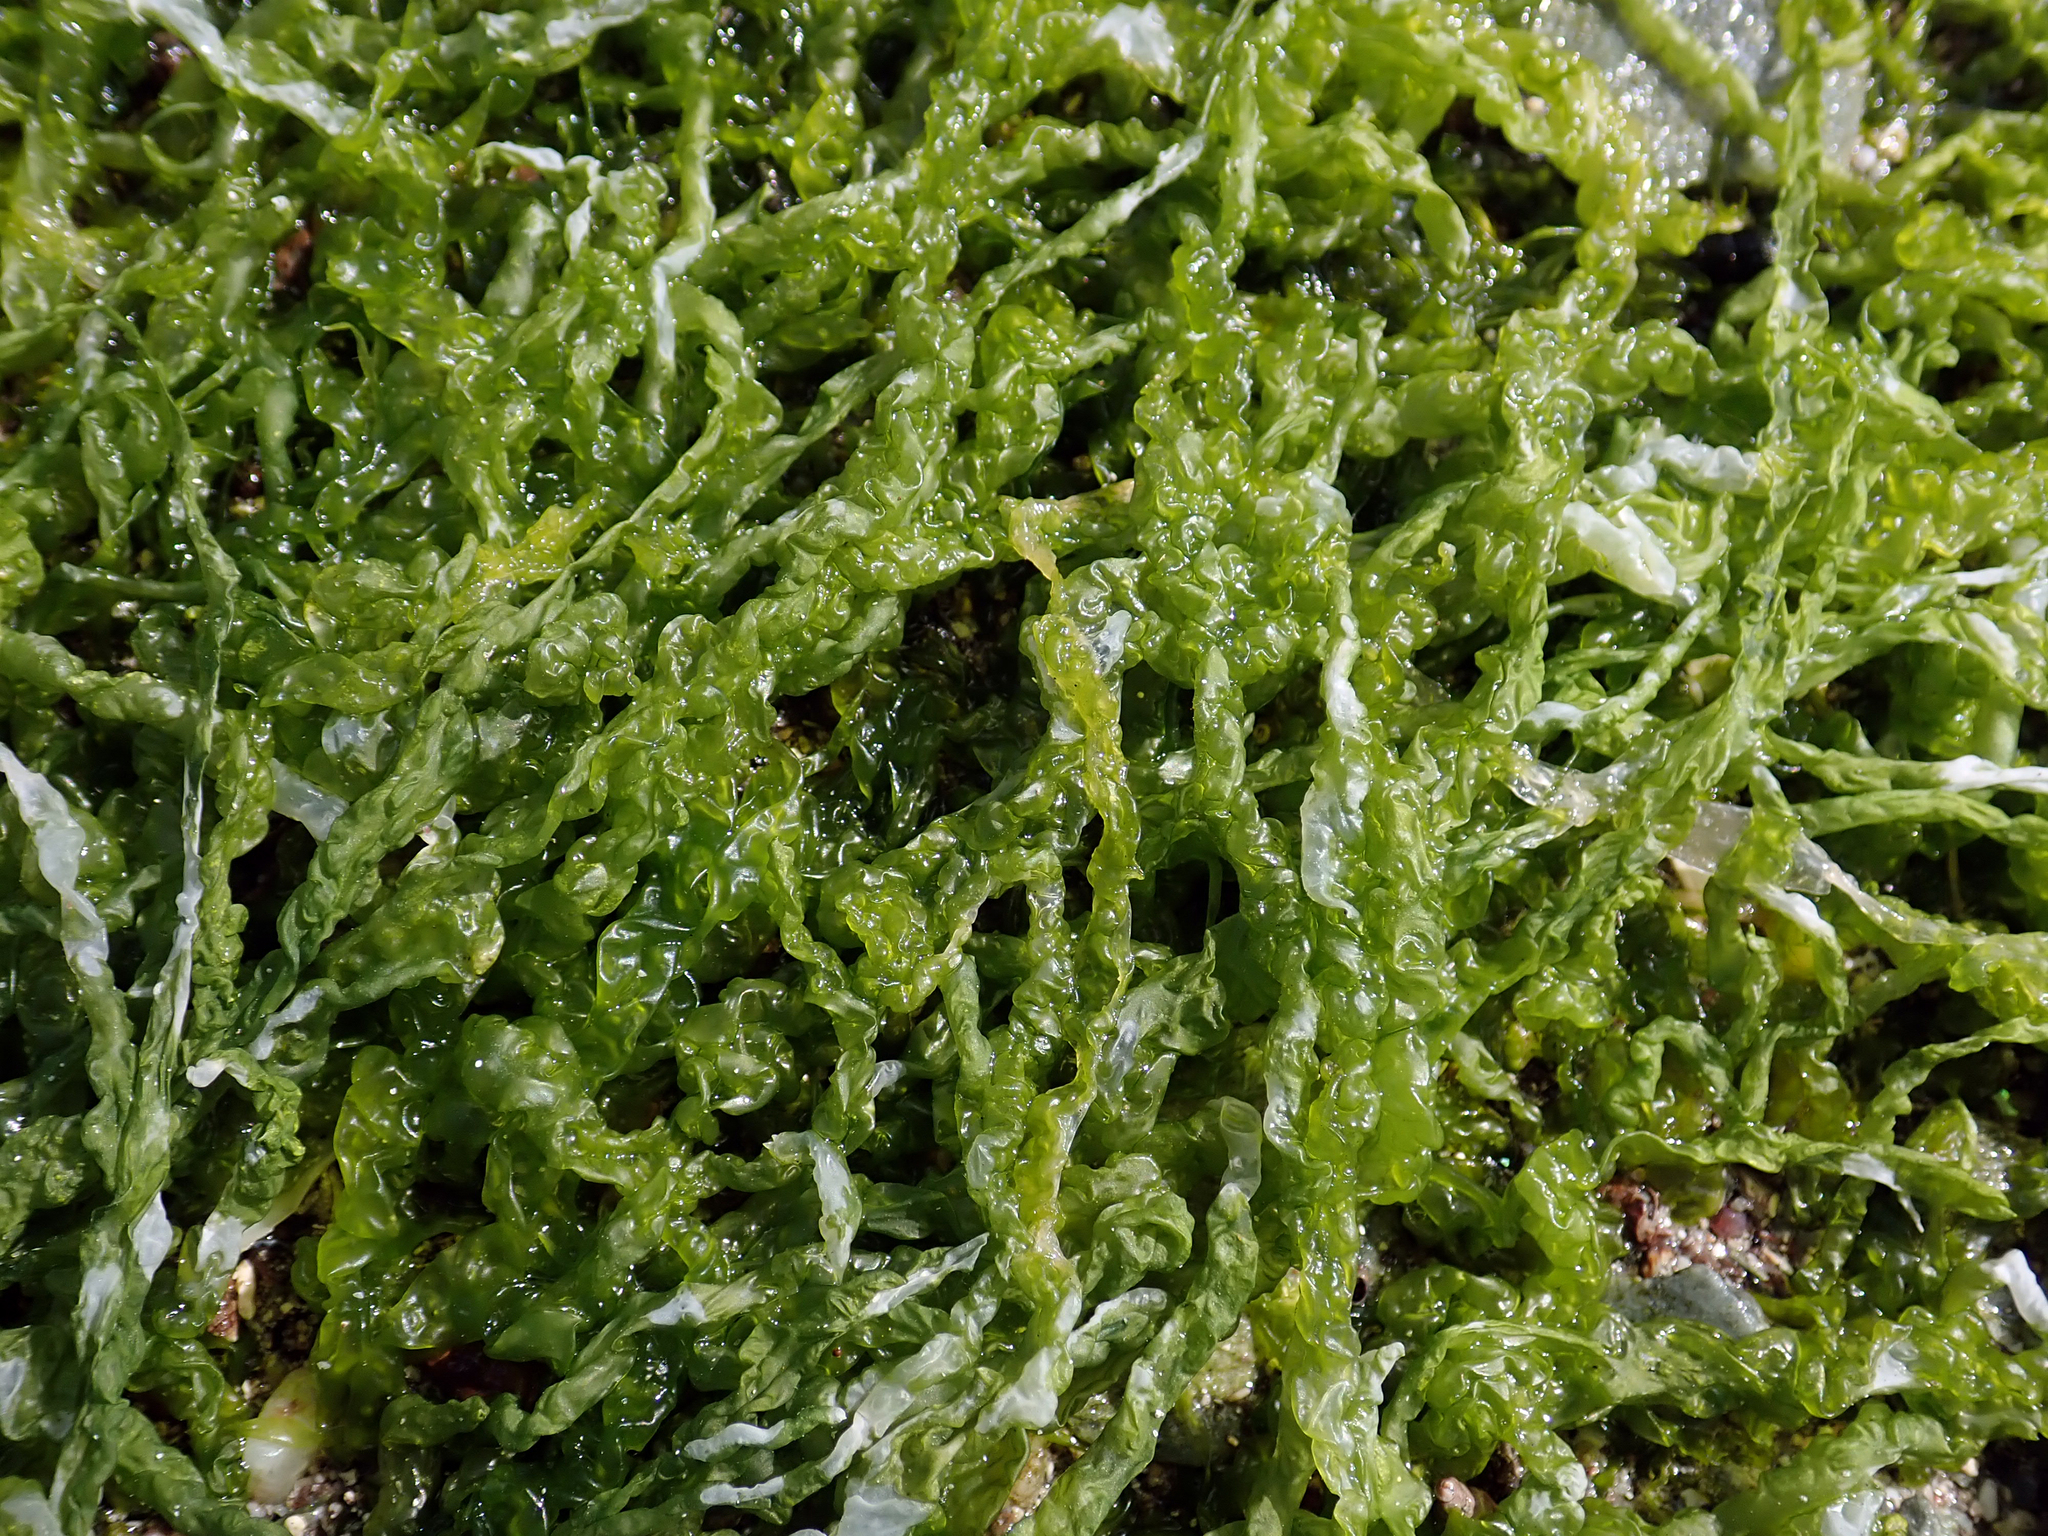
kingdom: Plantae
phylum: Chlorophyta
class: Ulvophyceae
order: Ulvales
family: Ulvaceae
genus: Ulva
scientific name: Ulva intestinalis
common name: Gut weed
